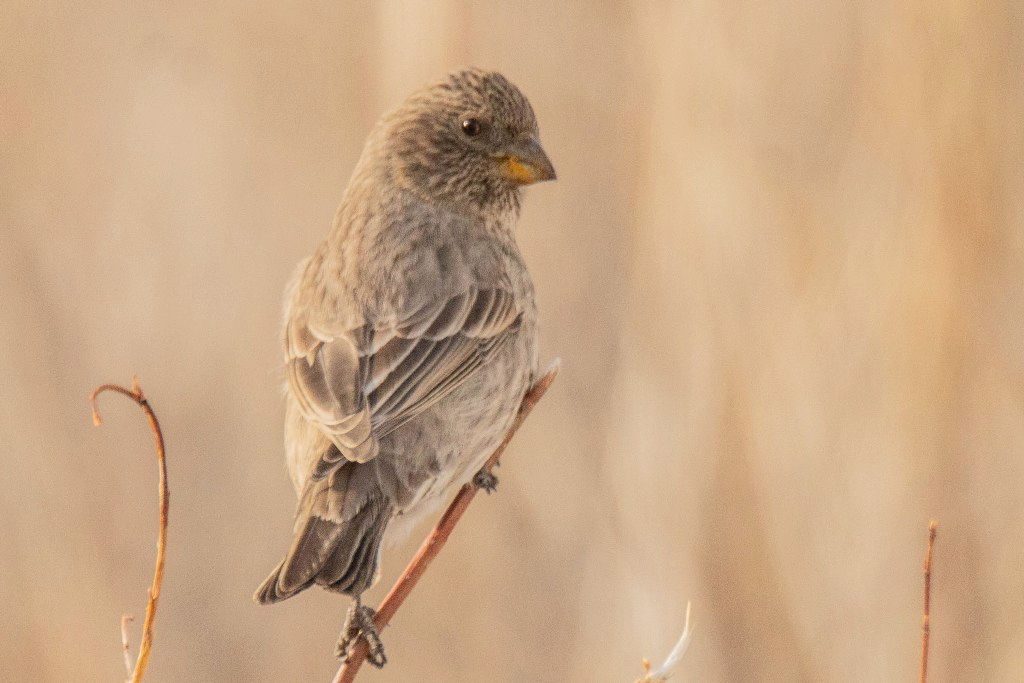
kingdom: Animalia
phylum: Chordata
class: Aves
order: Passeriformes
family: Fringillidae
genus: Carpodacus
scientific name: Carpodacus rubicilla
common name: Great rosefinch
